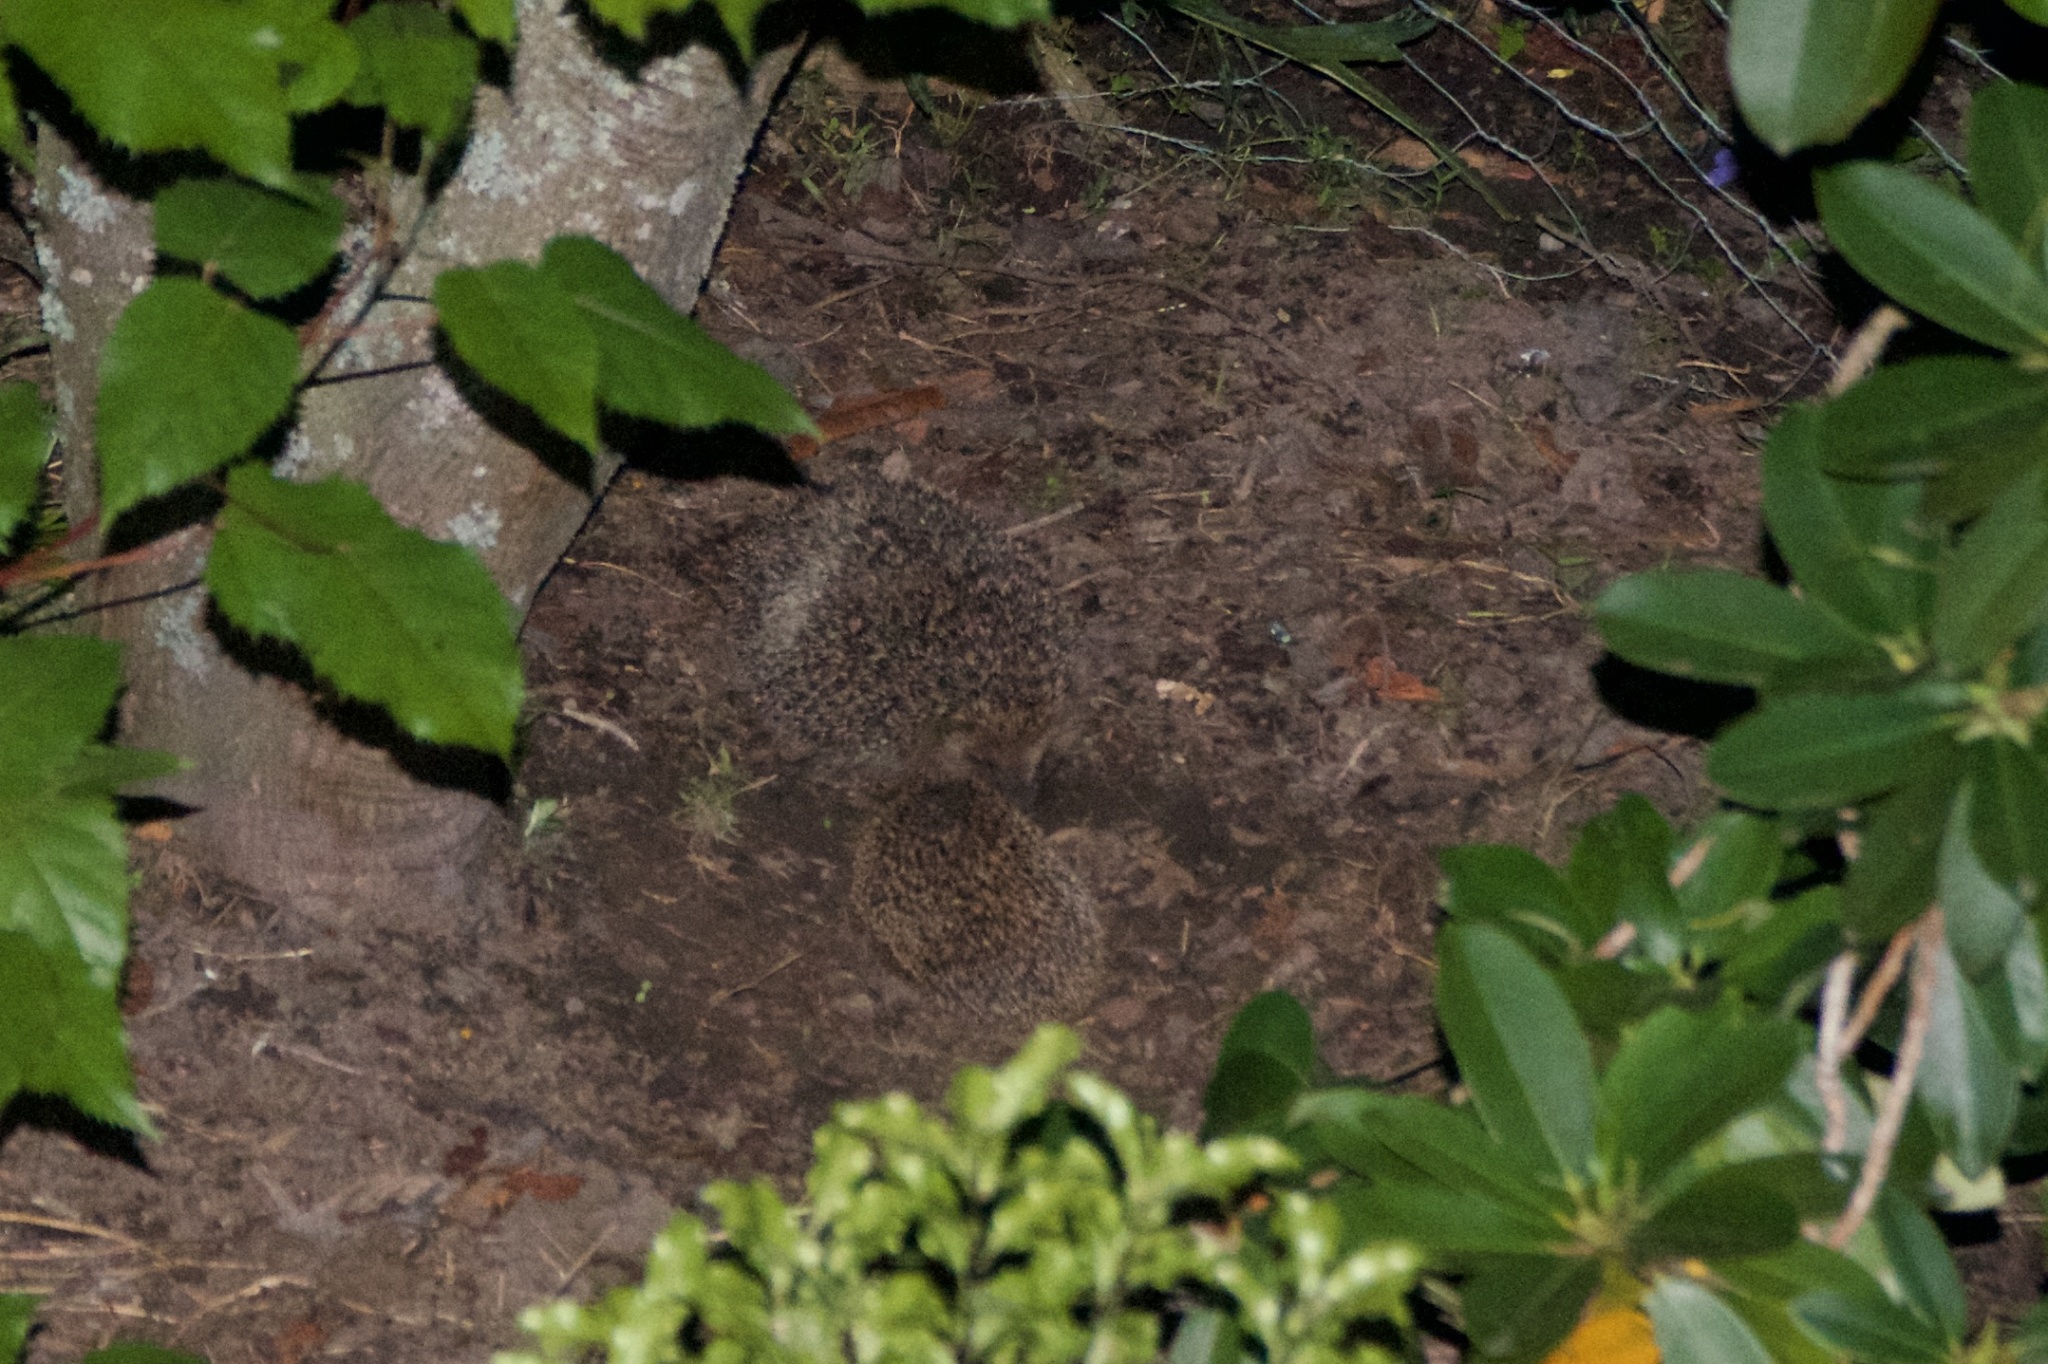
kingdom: Animalia
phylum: Chordata
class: Mammalia
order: Erinaceomorpha
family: Erinaceidae
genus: Erinaceus
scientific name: Erinaceus europaeus
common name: West european hedgehog
